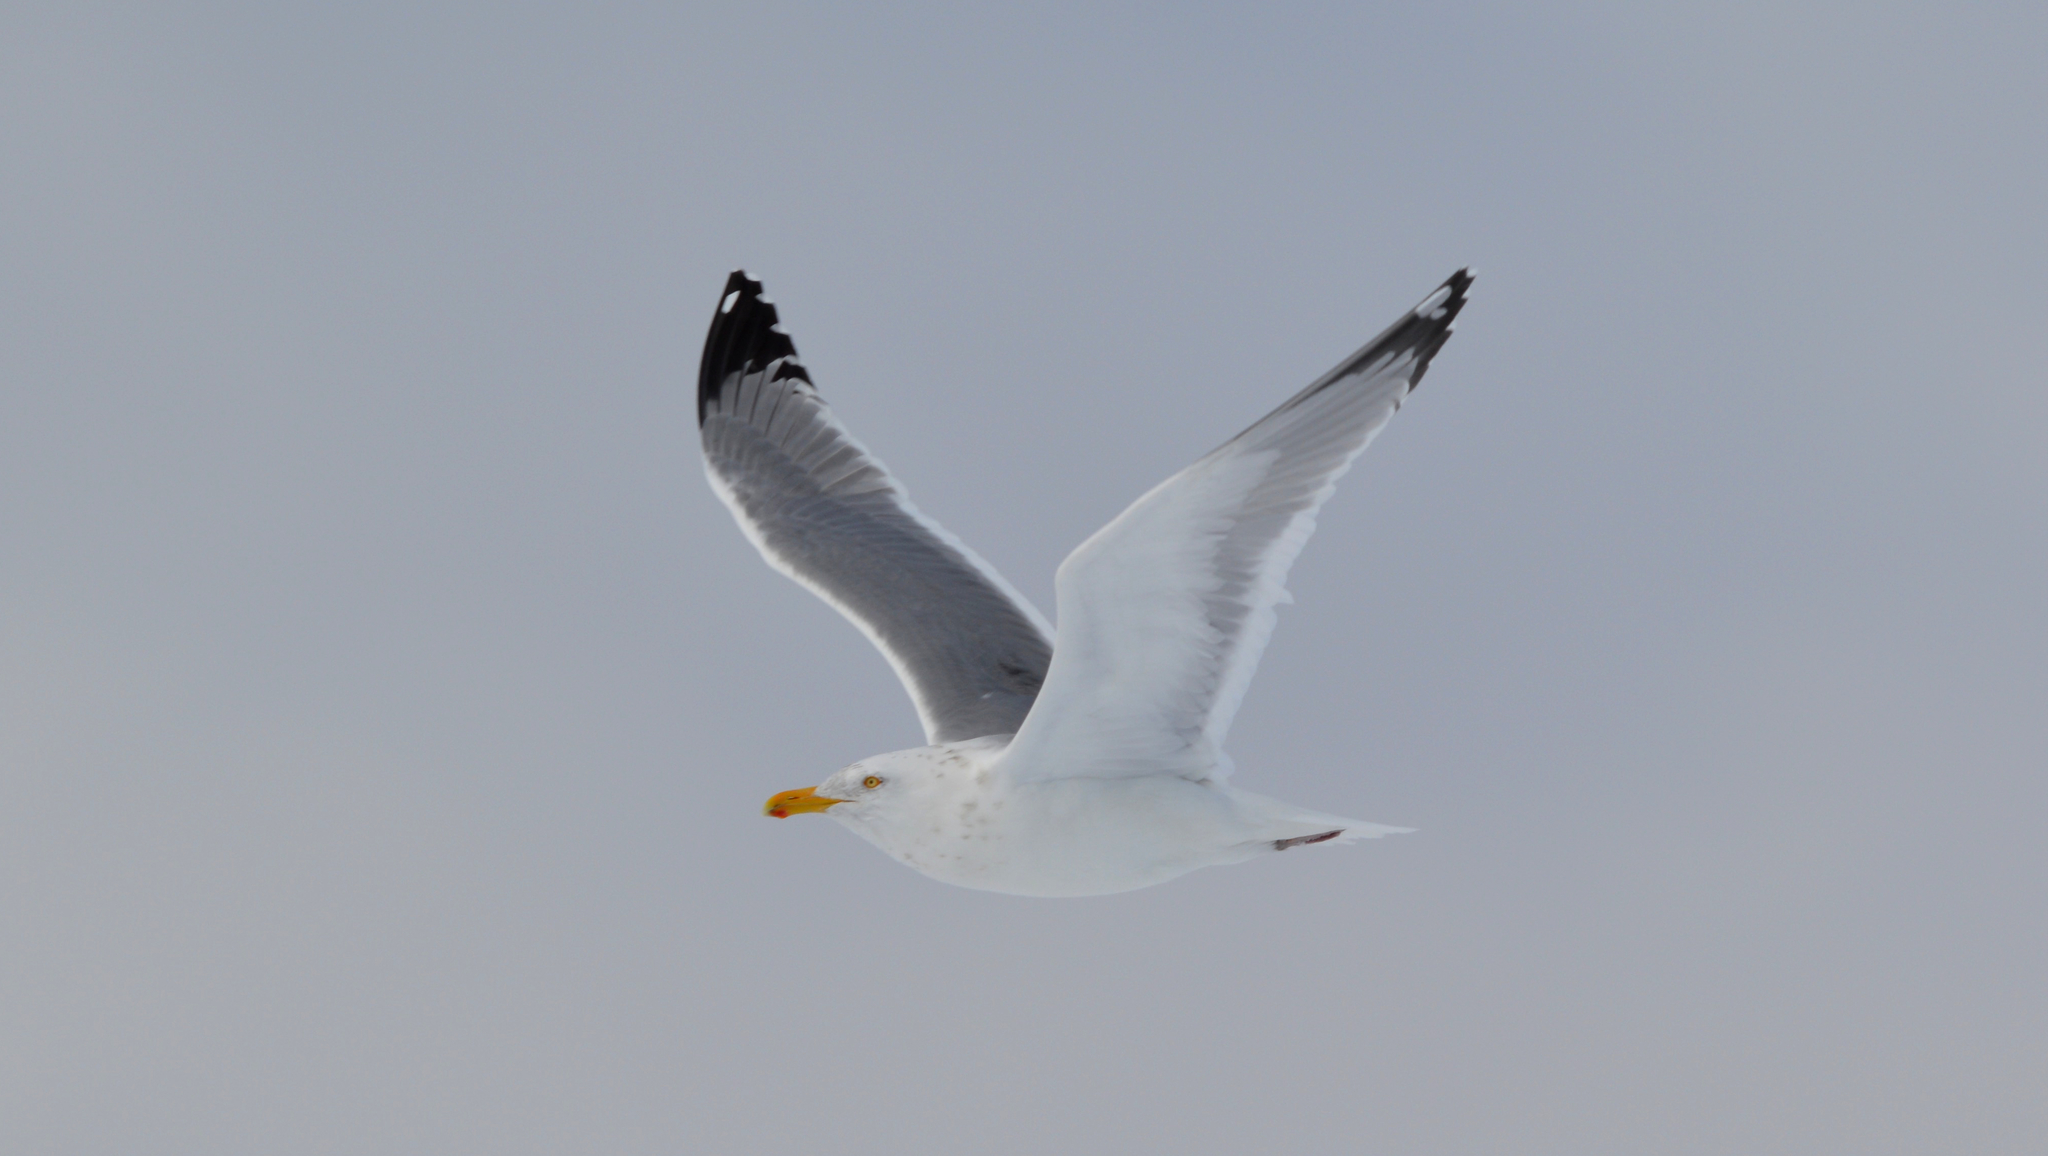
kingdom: Animalia
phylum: Chordata
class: Aves
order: Charadriiformes
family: Laridae
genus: Larus
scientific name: Larus argentatus
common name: Herring gull
